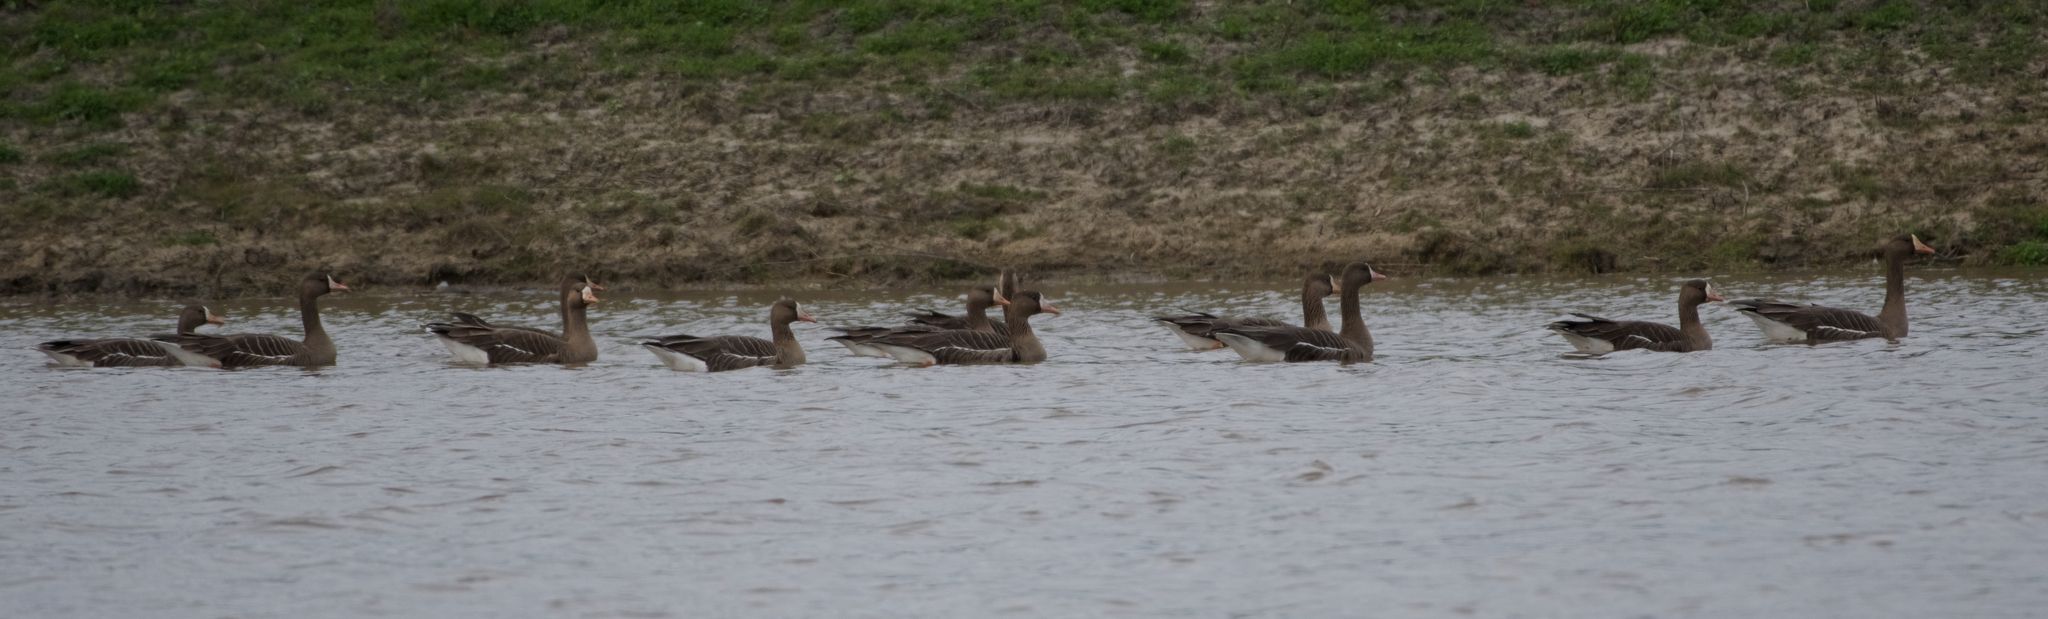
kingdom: Animalia
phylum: Chordata
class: Aves
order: Anseriformes
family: Anatidae
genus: Anser
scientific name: Anser albifrons
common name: Greater white-fronted goose
